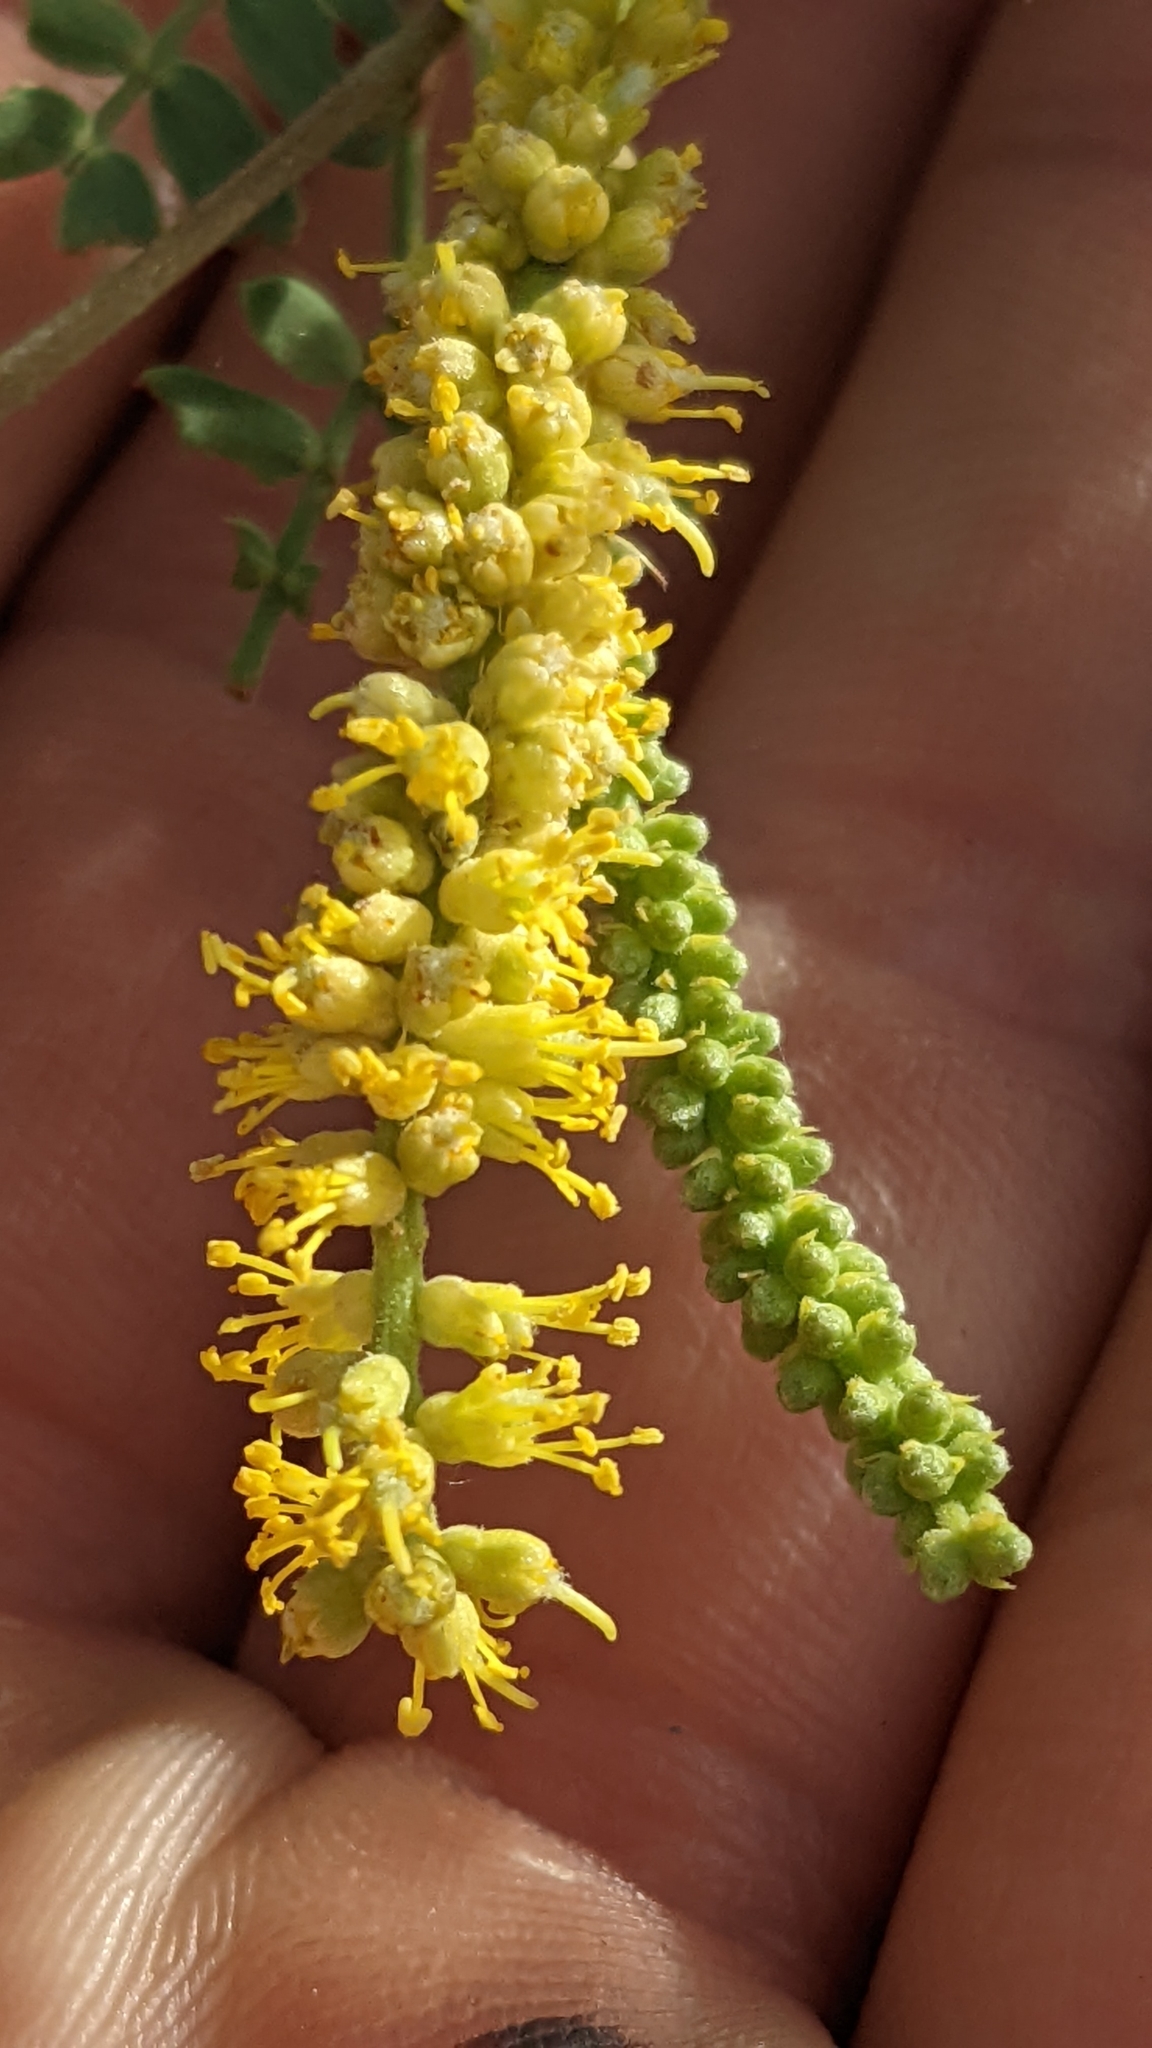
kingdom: Plantae
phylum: Tracheophyta
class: Magnoliopsida
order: Fabales
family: Fabaceae
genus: Prosopis
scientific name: Prosopis pubescens
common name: Screw-bean
